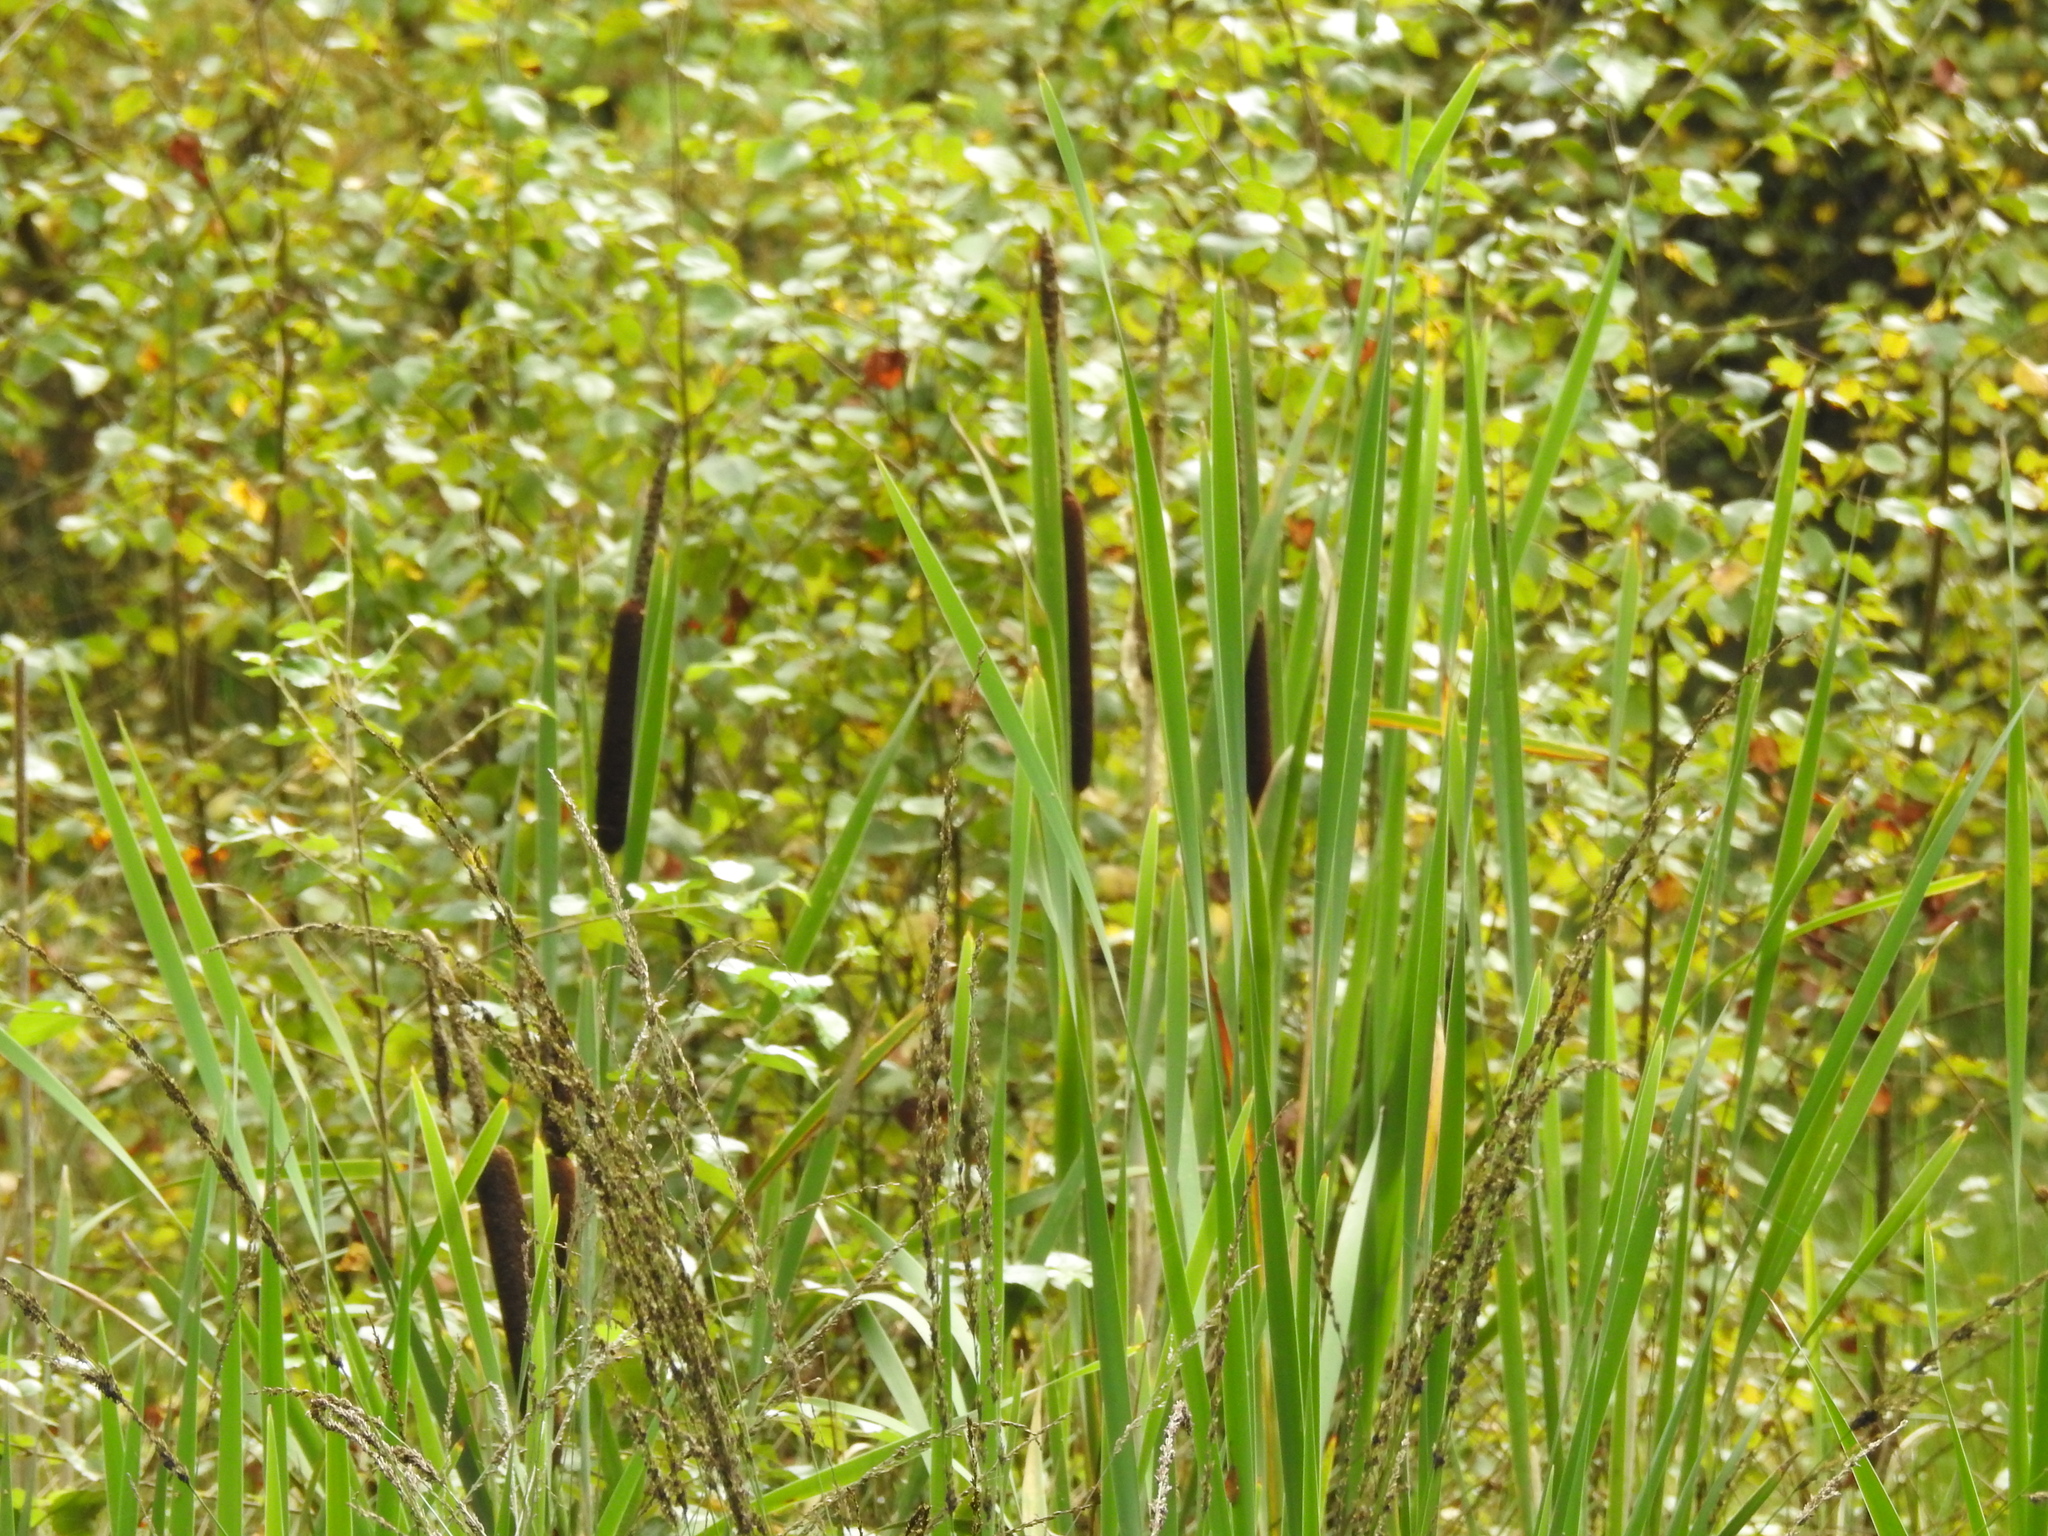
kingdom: Plantae
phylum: Tracheophyta
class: Liliopsida
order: Poales
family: Typhaceae
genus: Typha
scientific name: Typha latifolia
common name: Broadleaf cattail
